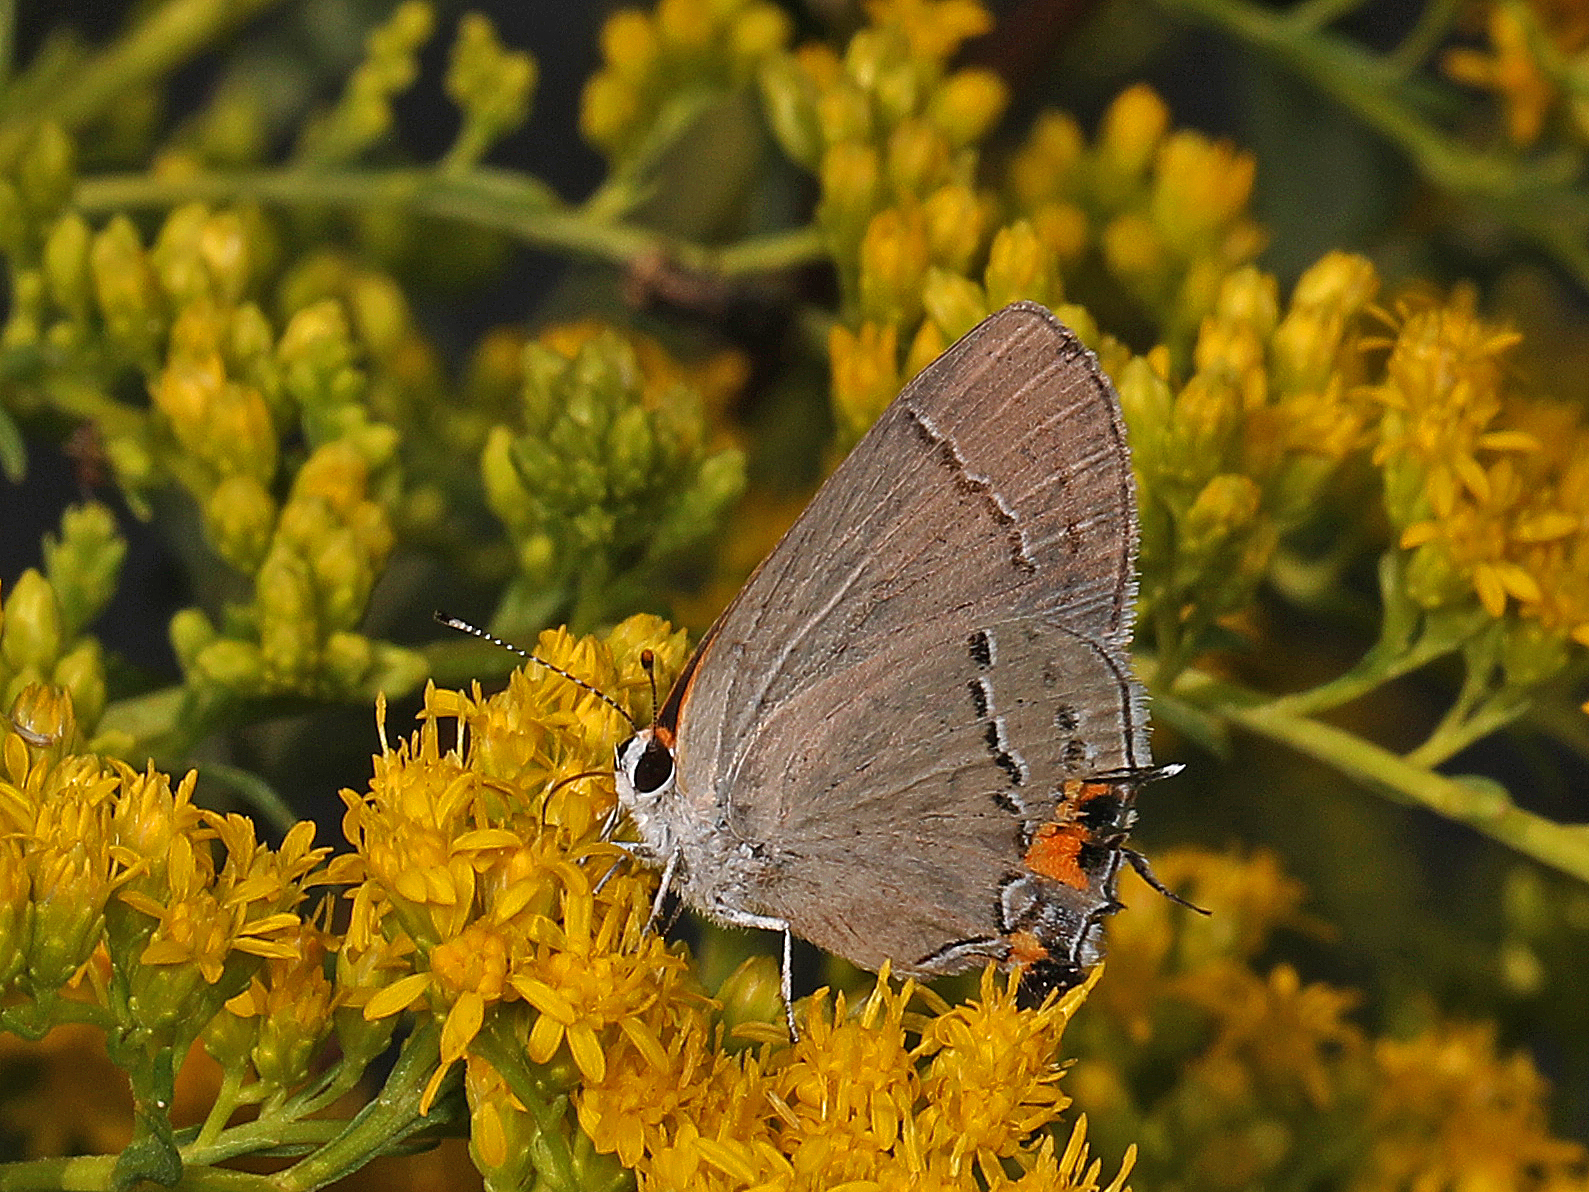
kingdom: Animalia
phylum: Arthropoda
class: Insecta
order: Lepidoptera
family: Lycaenidae
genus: Strymon
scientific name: Strymon melinus
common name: Gray hairstreak
